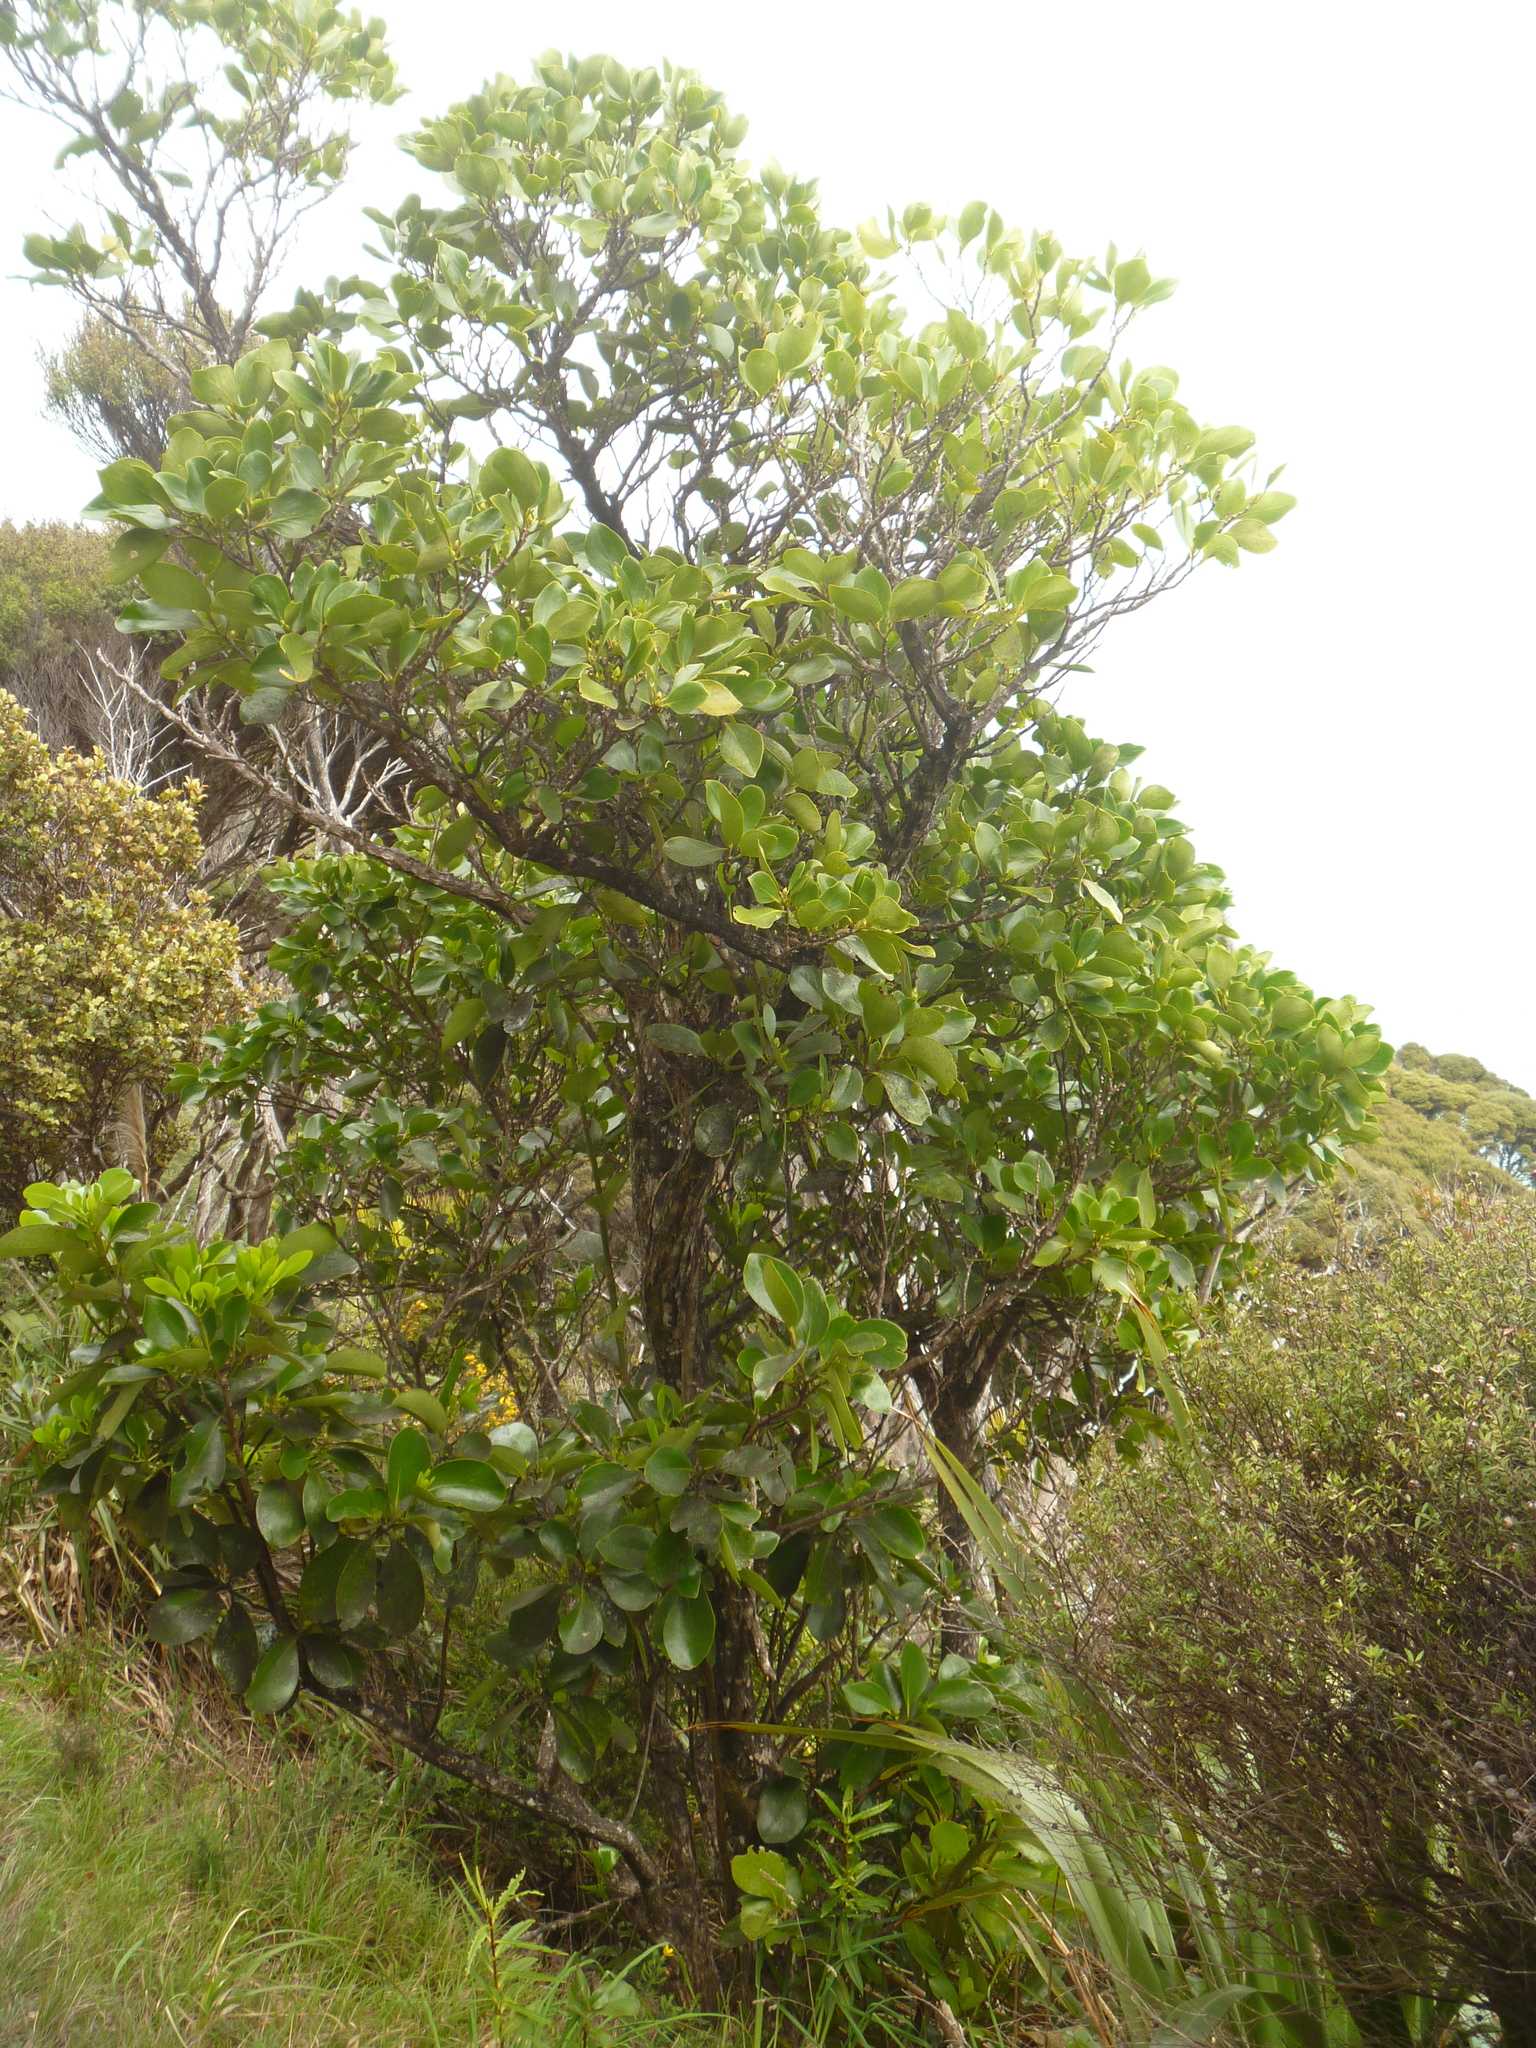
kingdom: Plantae
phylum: Tracheophyta
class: Magnoliopsida
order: Apiales
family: Griseliniaceae
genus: Griselinia
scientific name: Griselinia littoralis
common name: New zealand broadleaf
